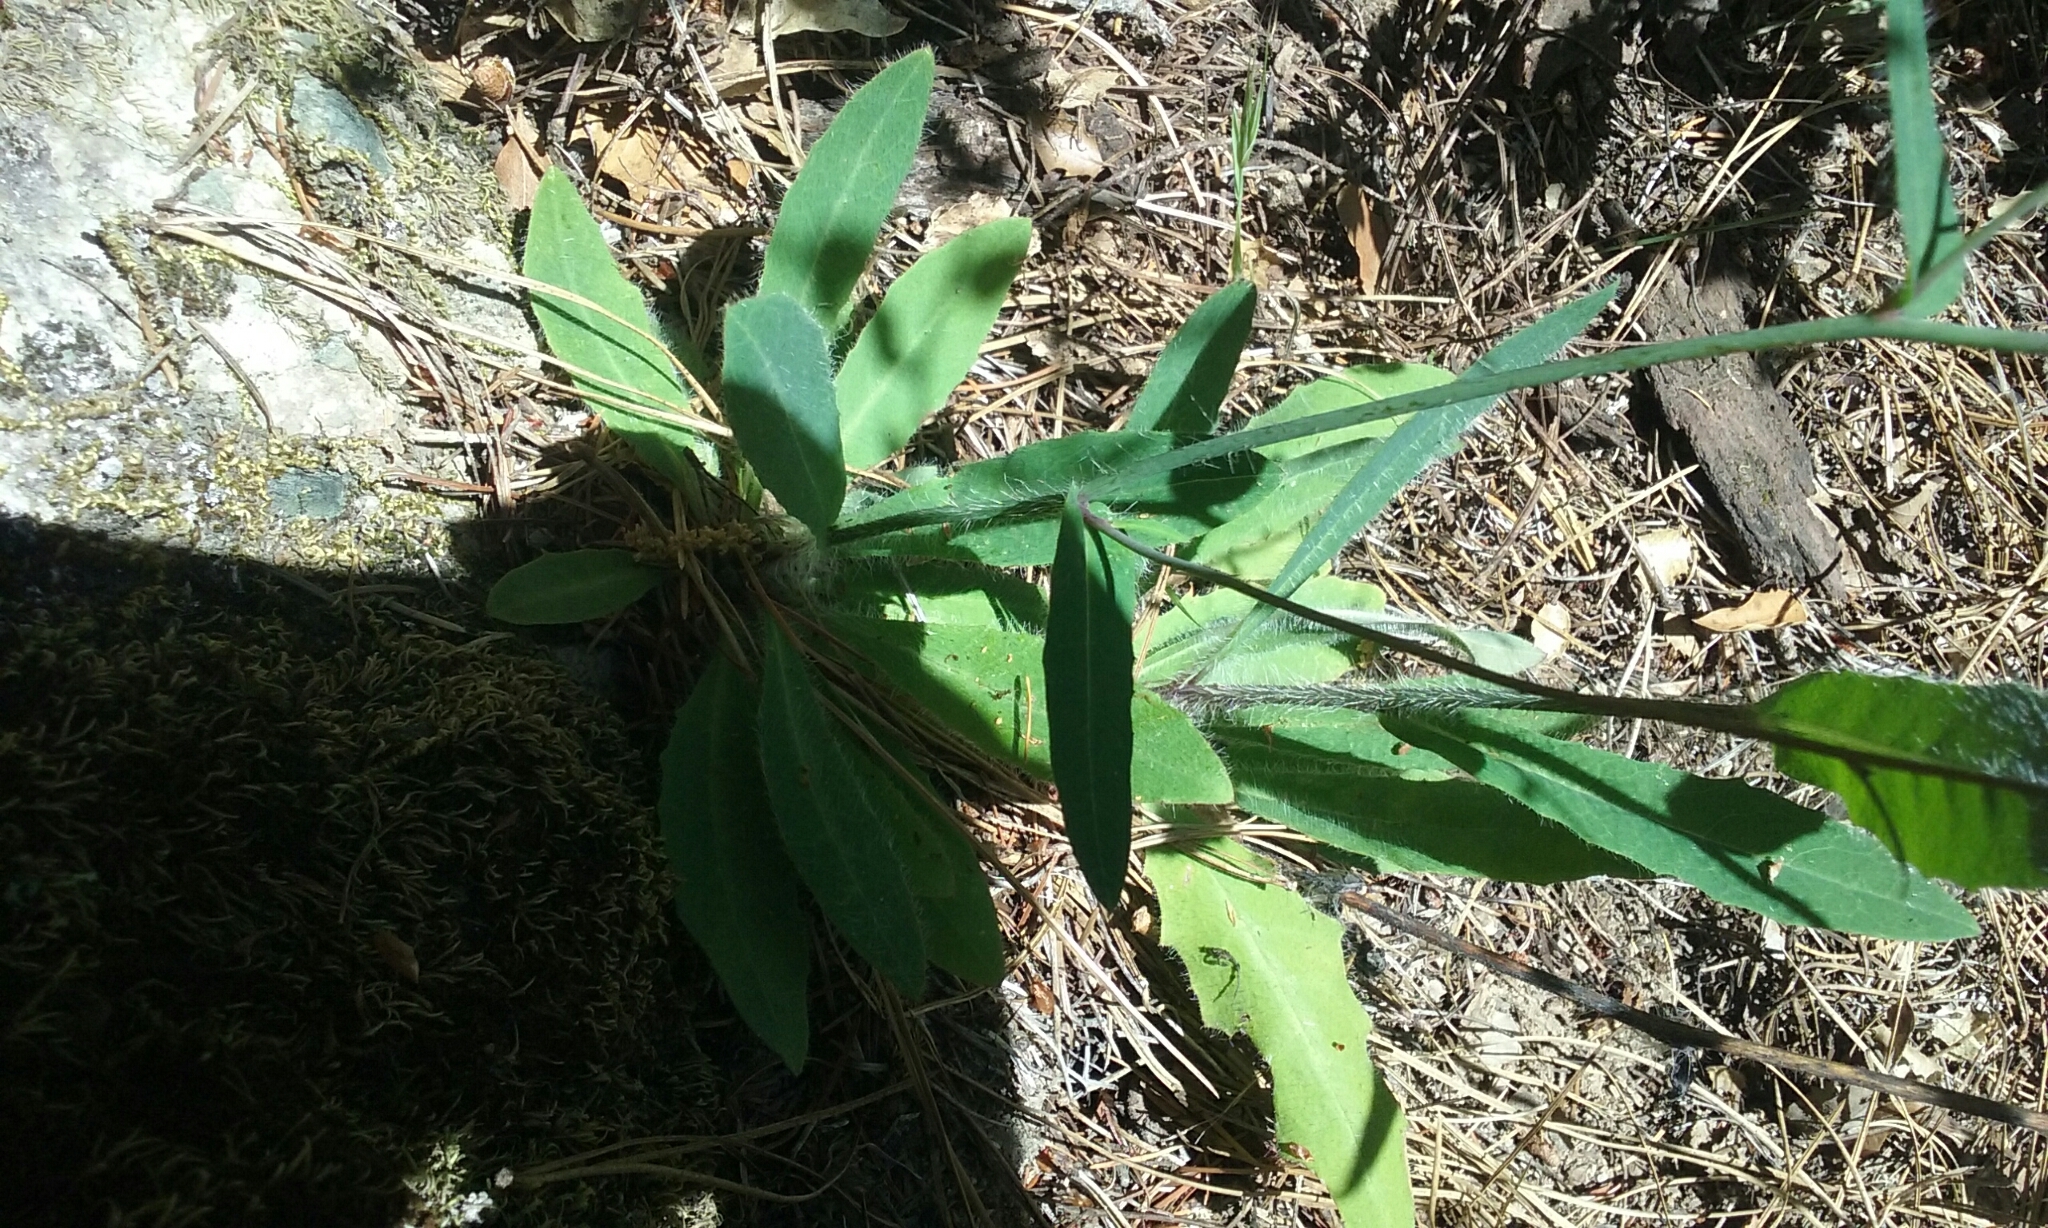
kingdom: Plantae
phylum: Tracheophyta
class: Magnoliopsida
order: Asterales
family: Asteraceae
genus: Hieracium
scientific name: Hieracium albiflorum
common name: White hawkweed
